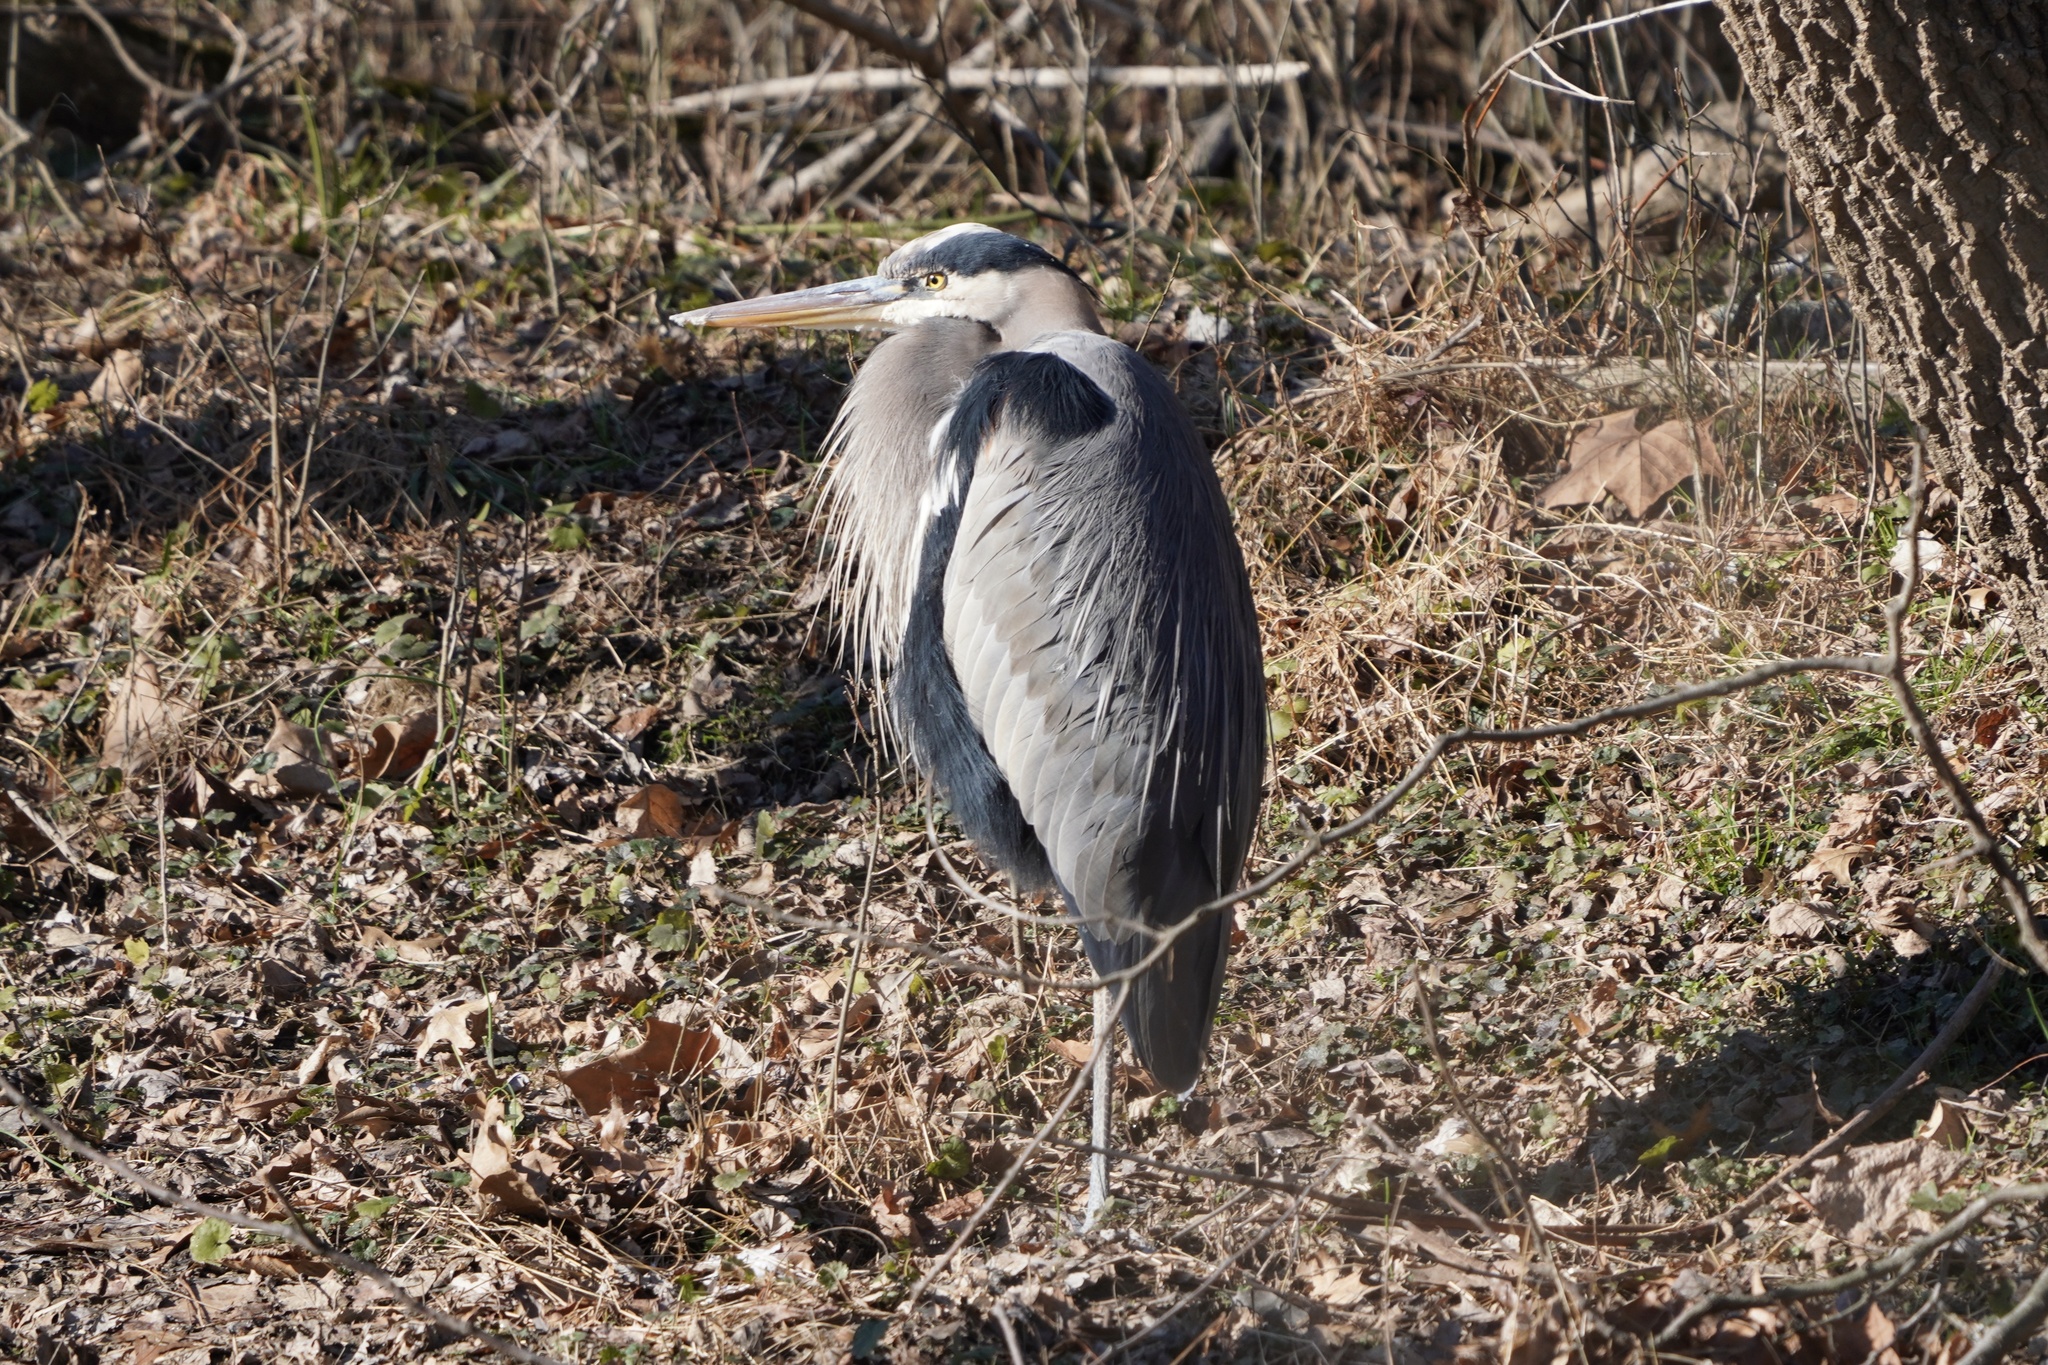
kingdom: Animalia
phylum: Chordata
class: Aves
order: Pelecaniformes
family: Ardeidae
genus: Ardea
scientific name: Ardea herodias
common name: Great blue heron
